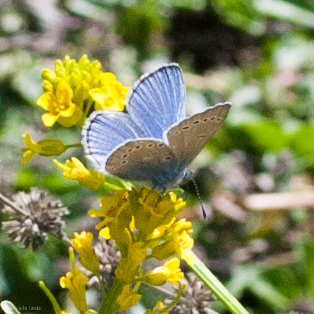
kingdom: Animalia
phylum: Arthropoda
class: Insecta
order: Lepidoptera
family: Lycaenidae
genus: Glaucopsyche
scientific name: Glaucopsyche lygdamus
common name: Silvery blue
